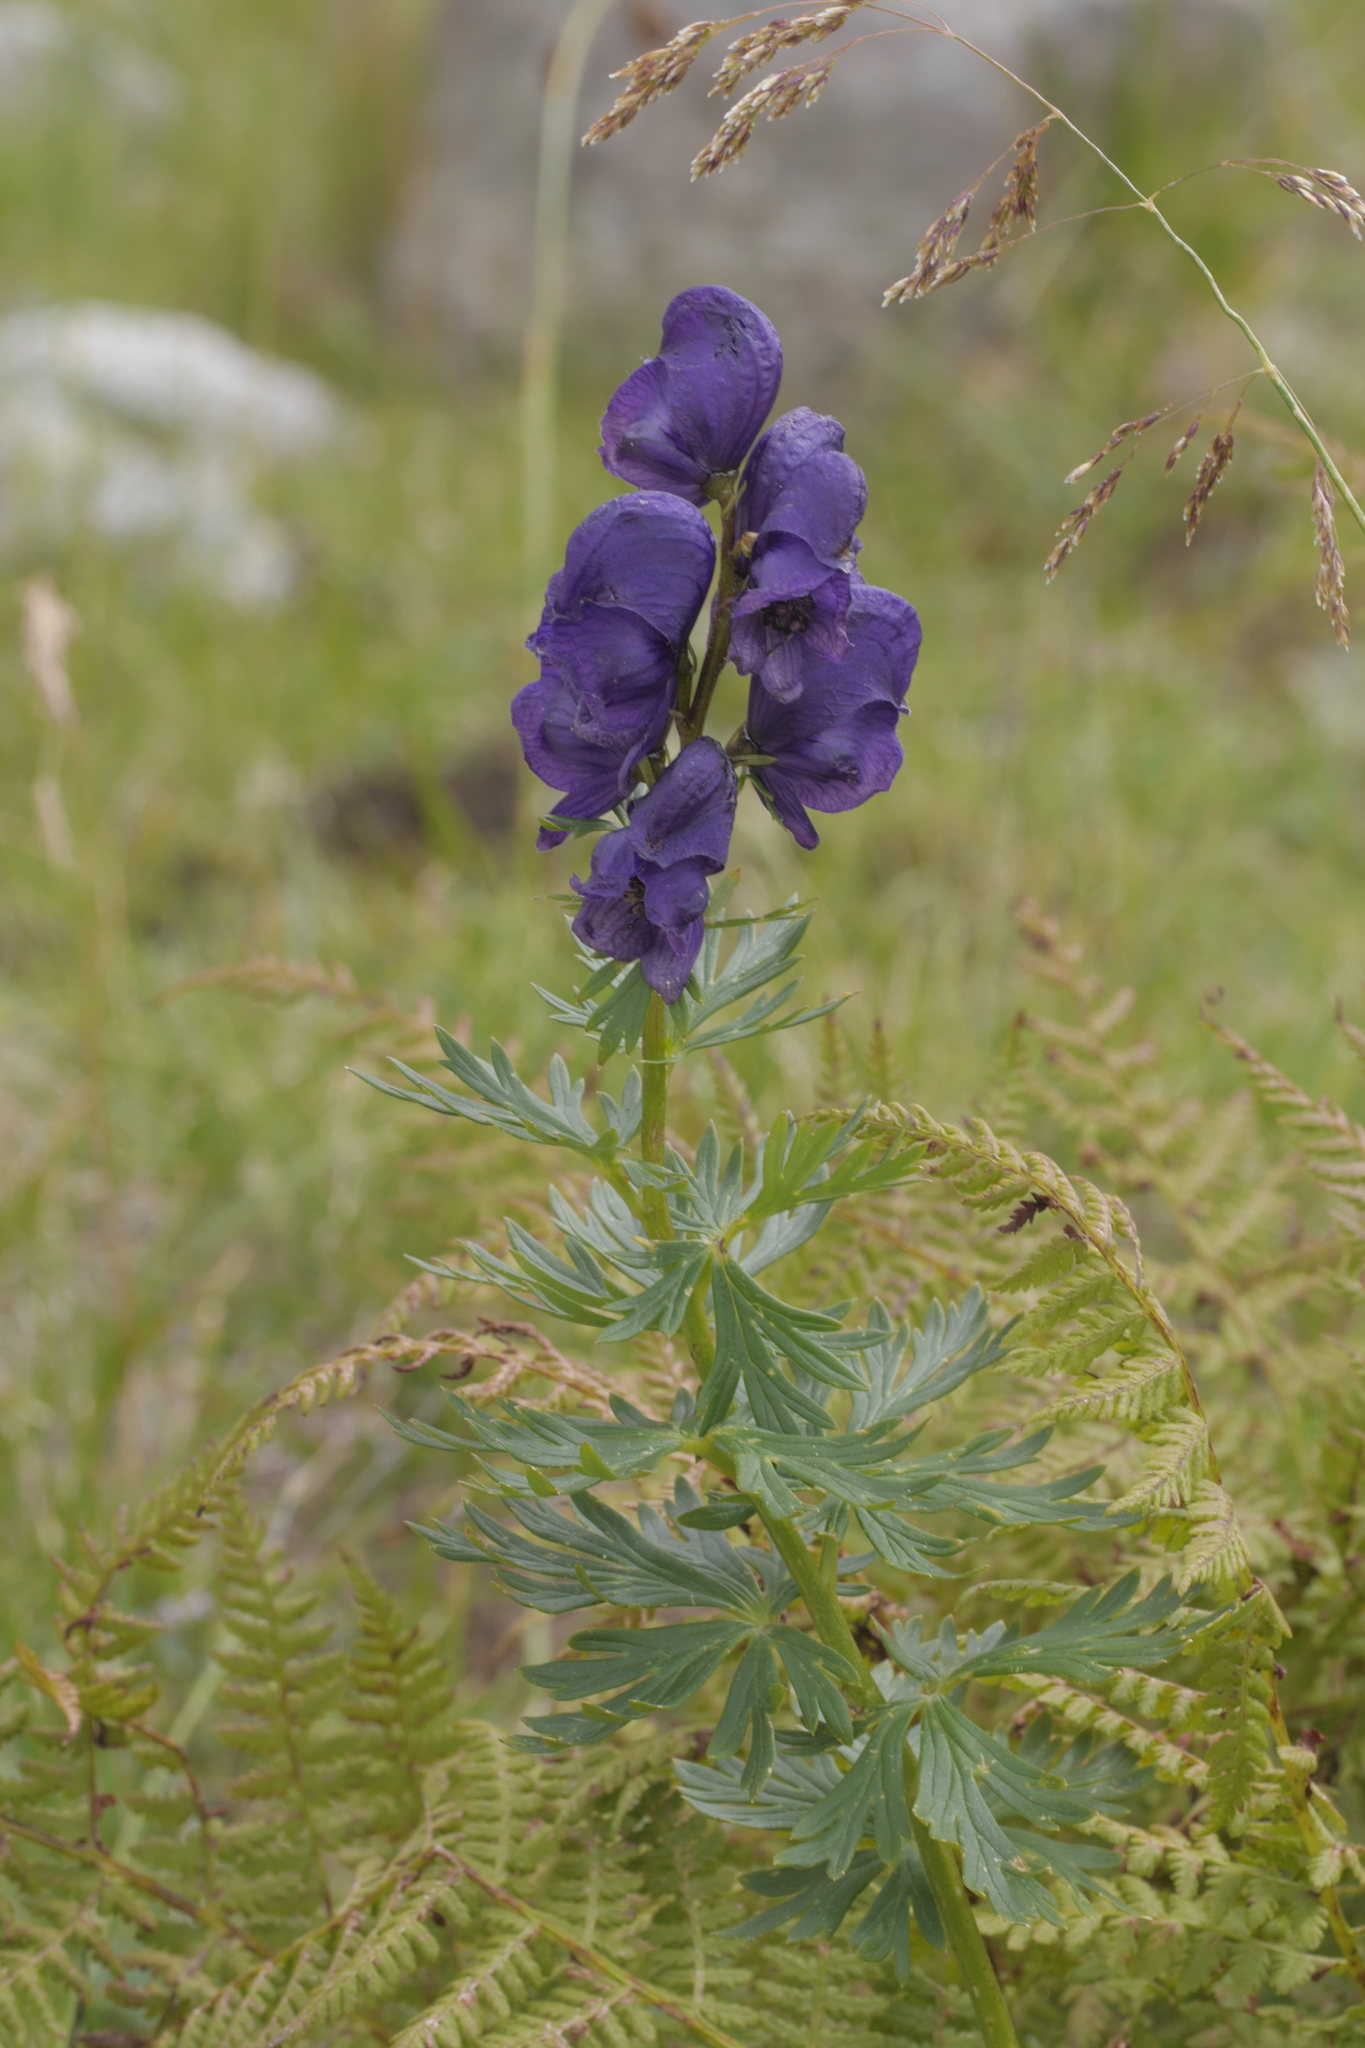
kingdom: Plantae
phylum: Tracheophyta
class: Magnoliopsida
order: Ranunculales
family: Ranunculaceae
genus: Aconitum
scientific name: Aconitum tauricum
